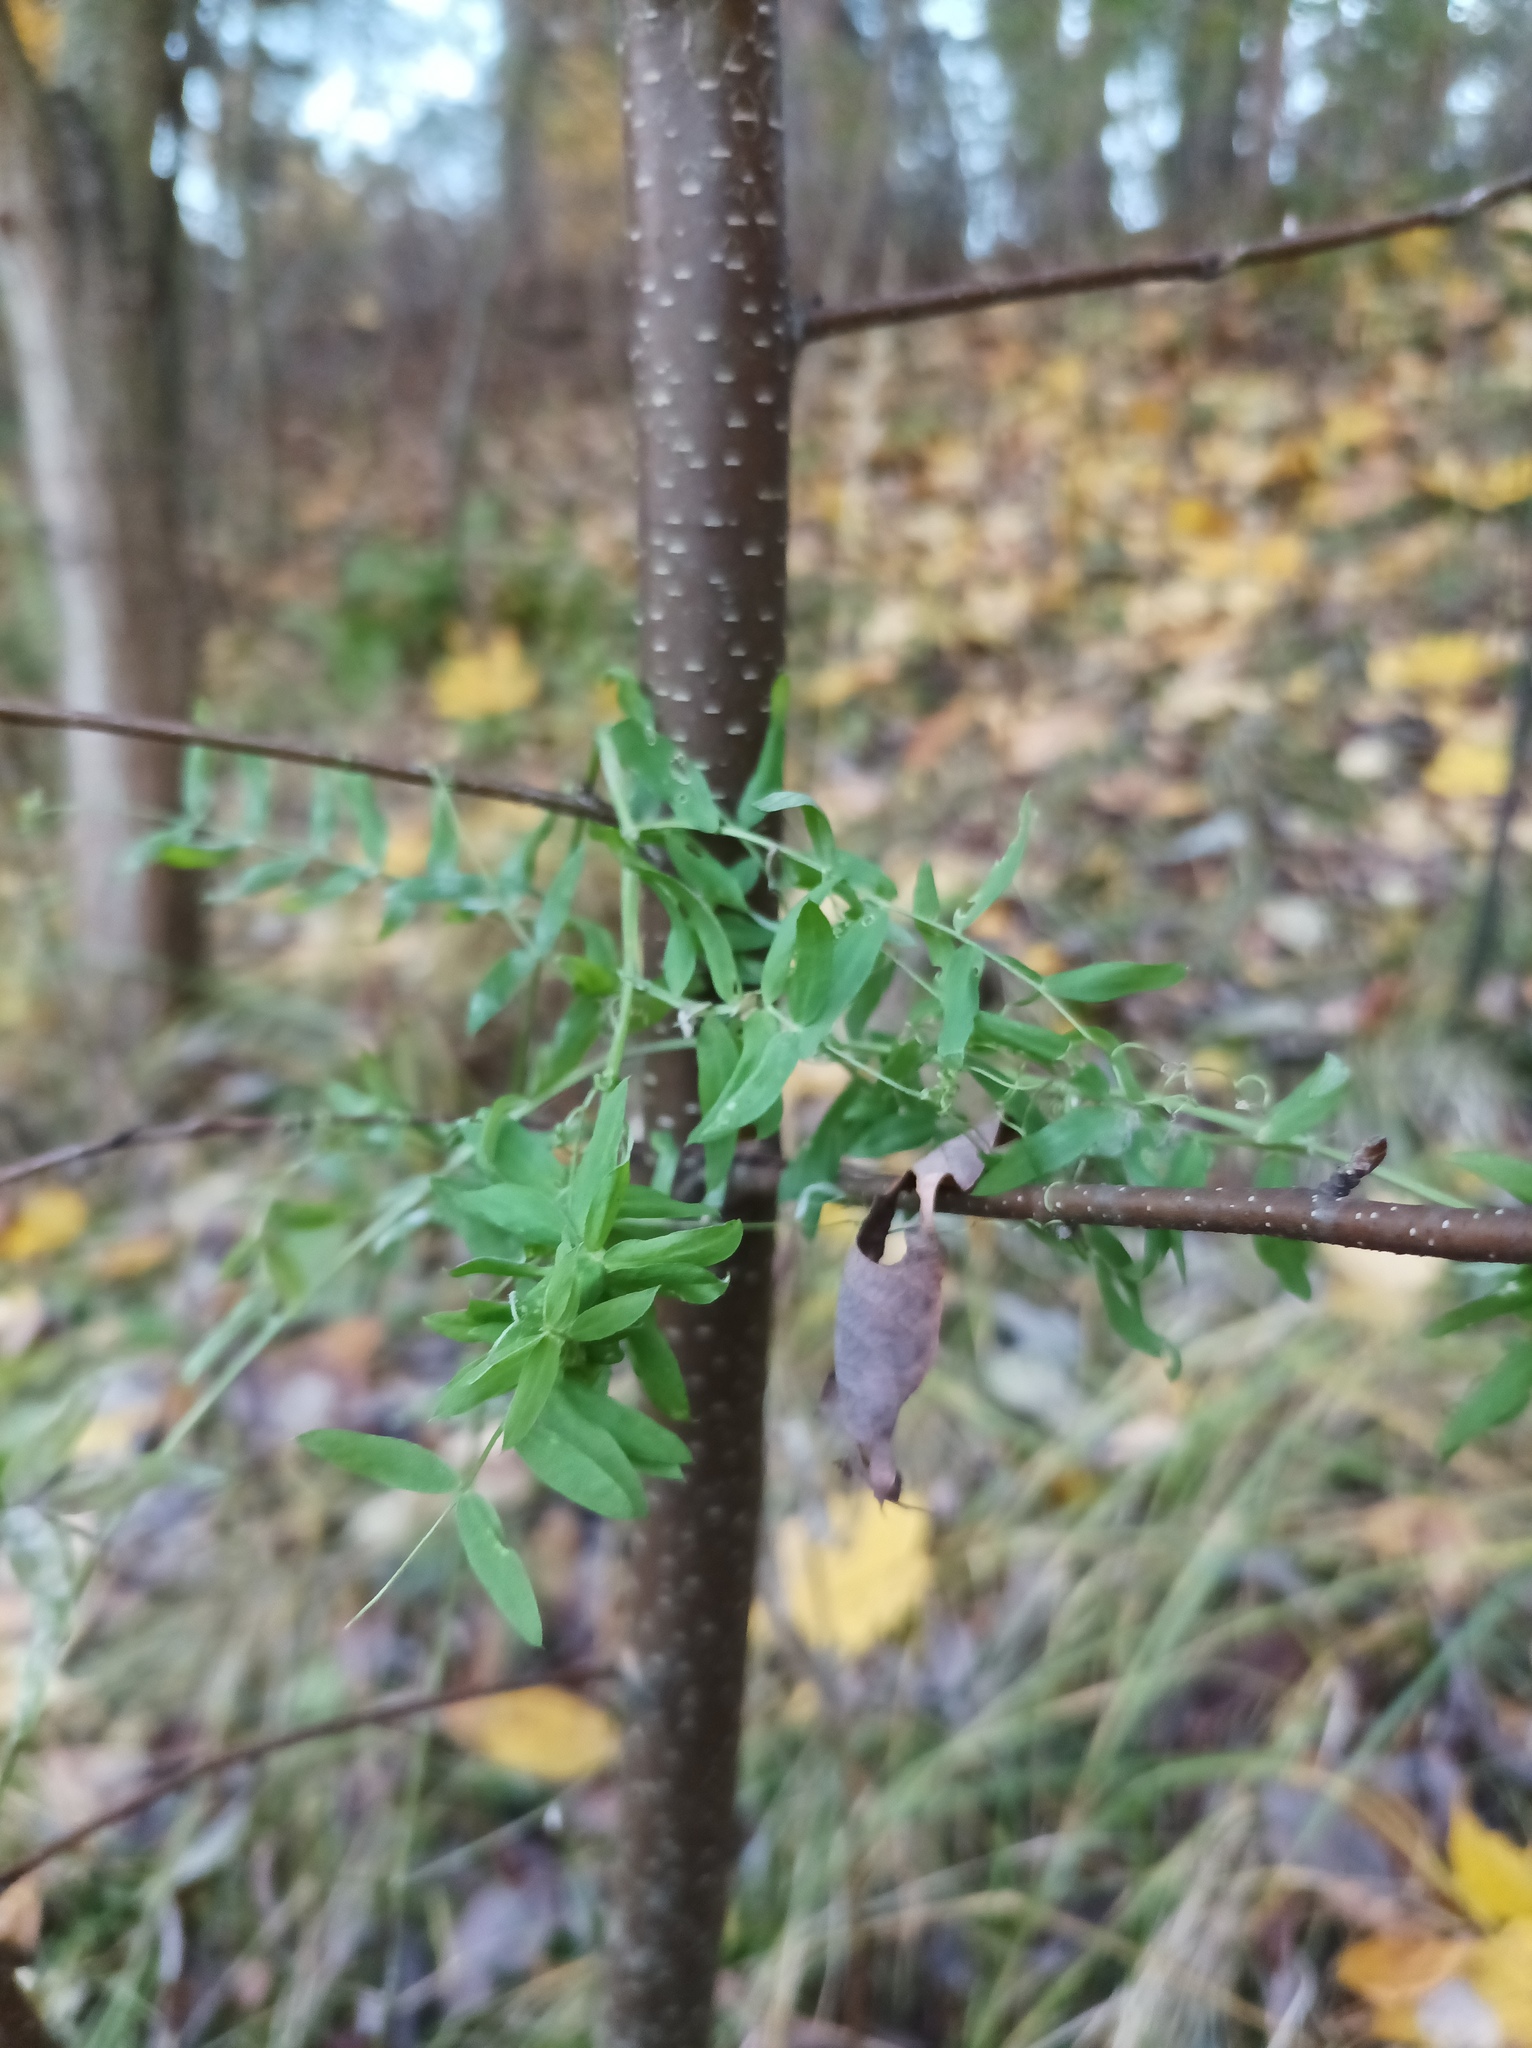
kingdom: Plantae
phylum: Tracheophyta
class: Magnoliopsida
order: Fabales
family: Fabaceae
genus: Vicia
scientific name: Vicia cracca
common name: Bird vetch
